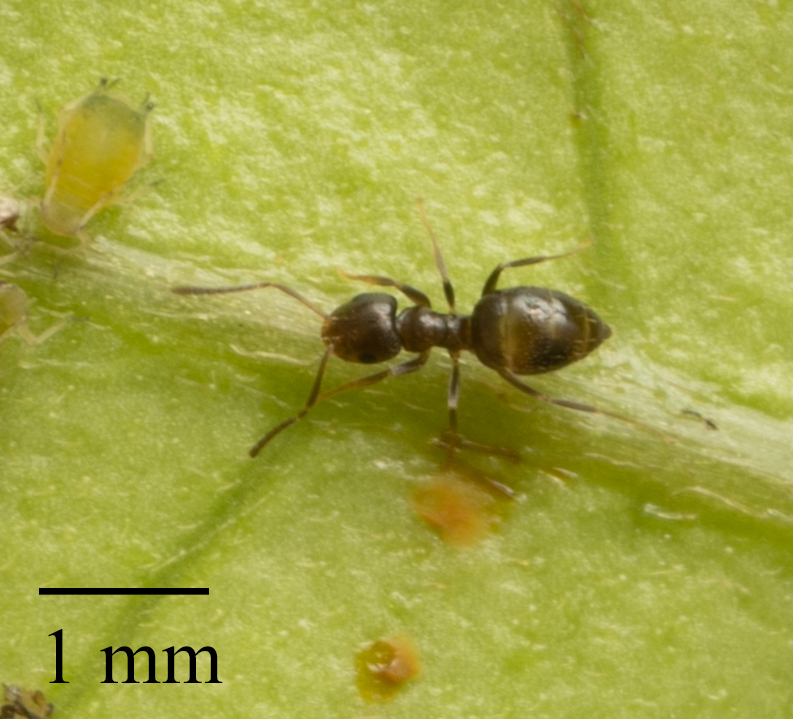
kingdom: Animalia
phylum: Arthropoda
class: Insecta
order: Hymenoptera
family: Formicidae
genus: Brachymyrmex
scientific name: Brachymyrmex patagonicus
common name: Dark rover ant
